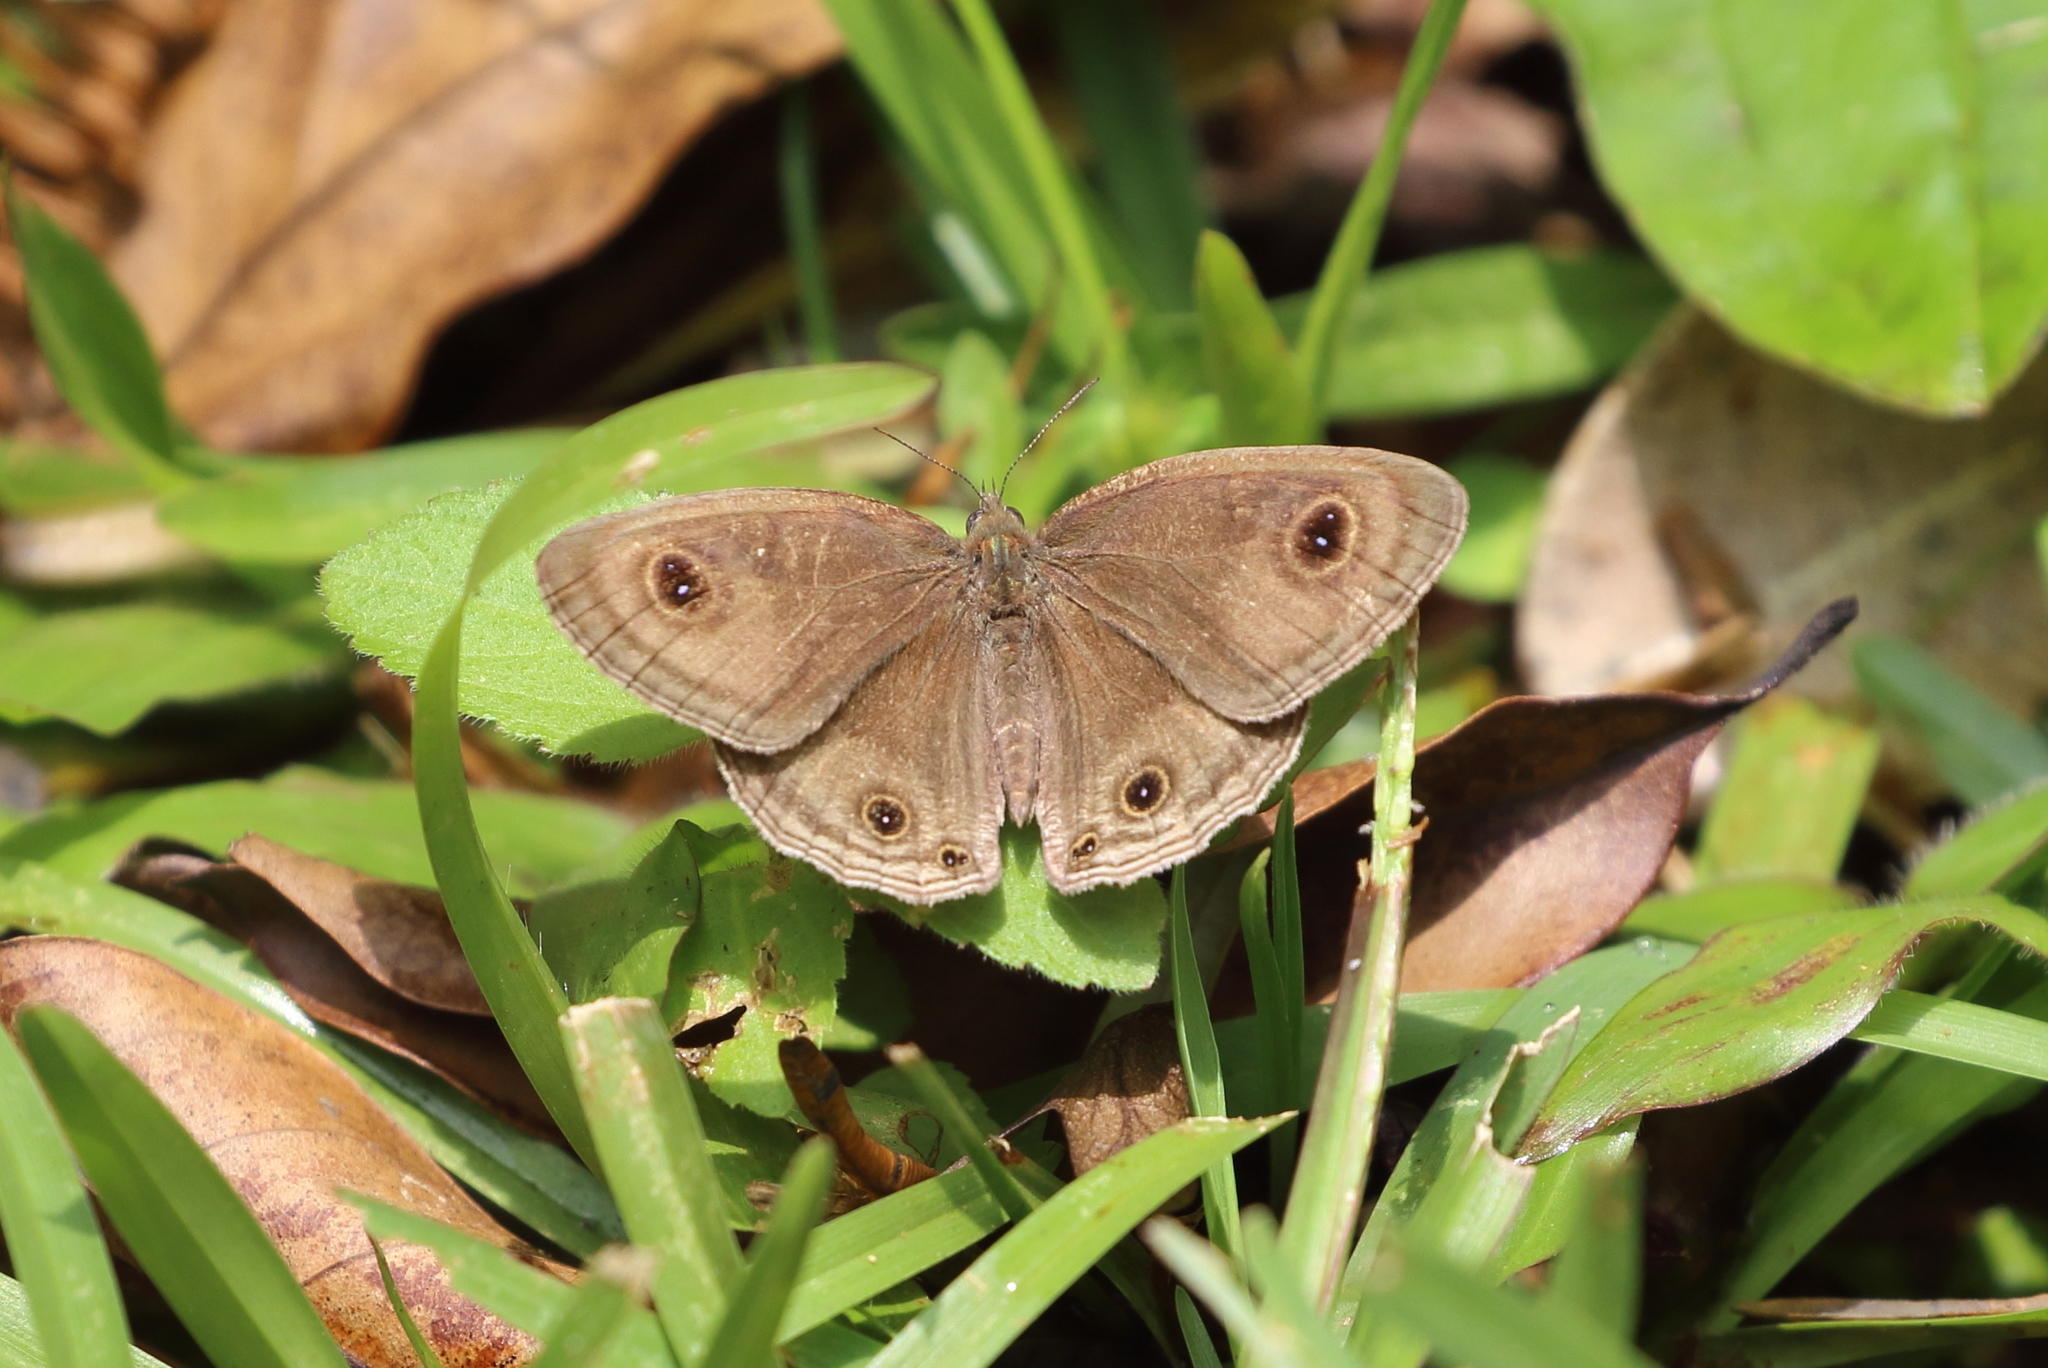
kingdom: Animalia
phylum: Arthropoda
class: Insecta
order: Lepidoptera
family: Nymphalidae
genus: Ypthima
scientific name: Ypthima pandocus
